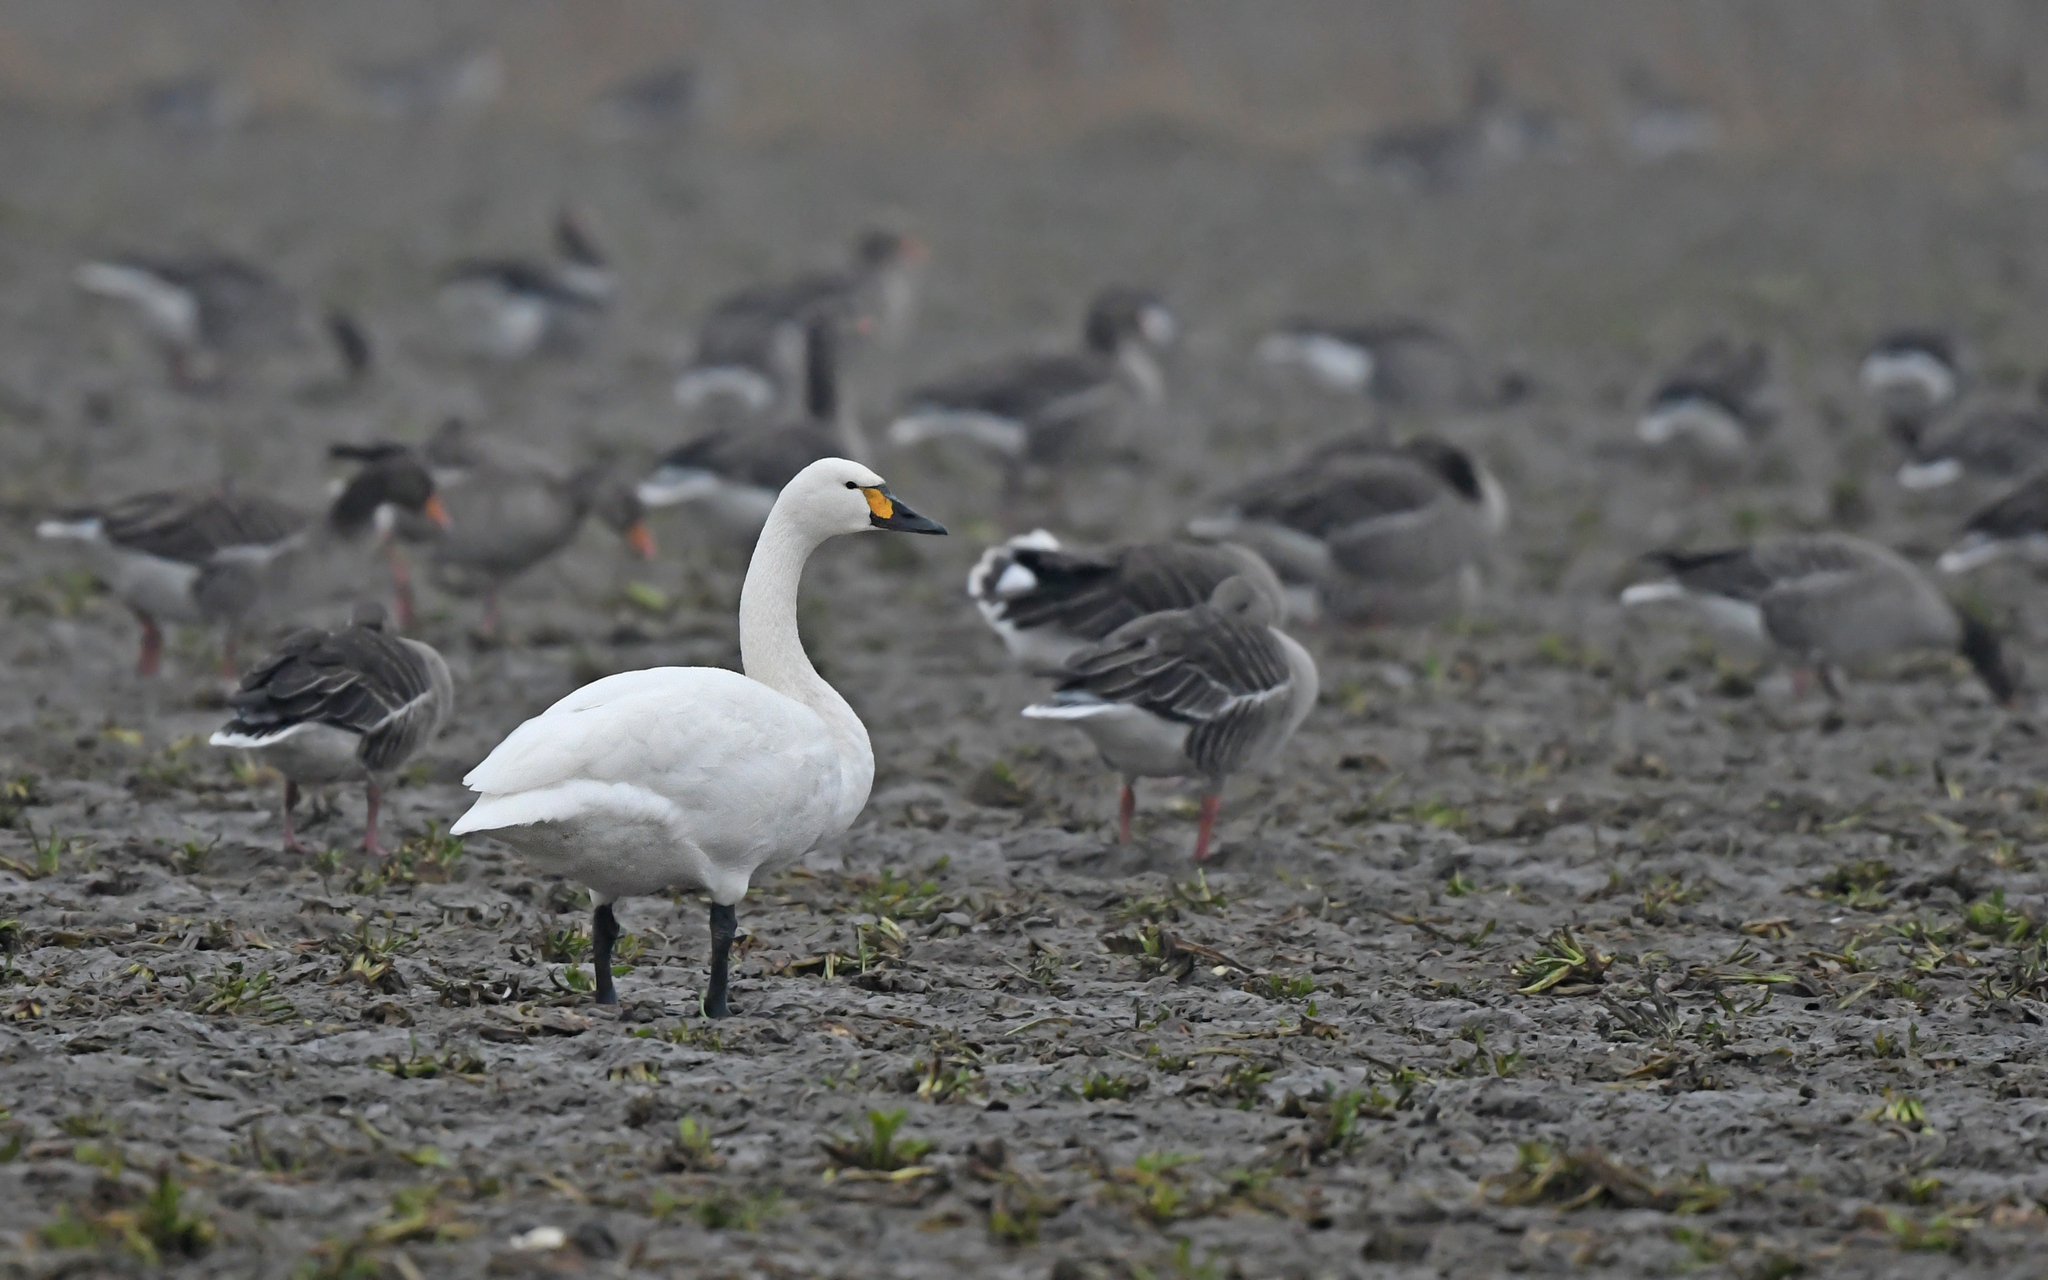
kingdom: Animalia
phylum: Chordata
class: Aves
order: Anseriformes
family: Anatidae
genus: Cygnus
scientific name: Cygnus columbianus
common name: Tundra swan
